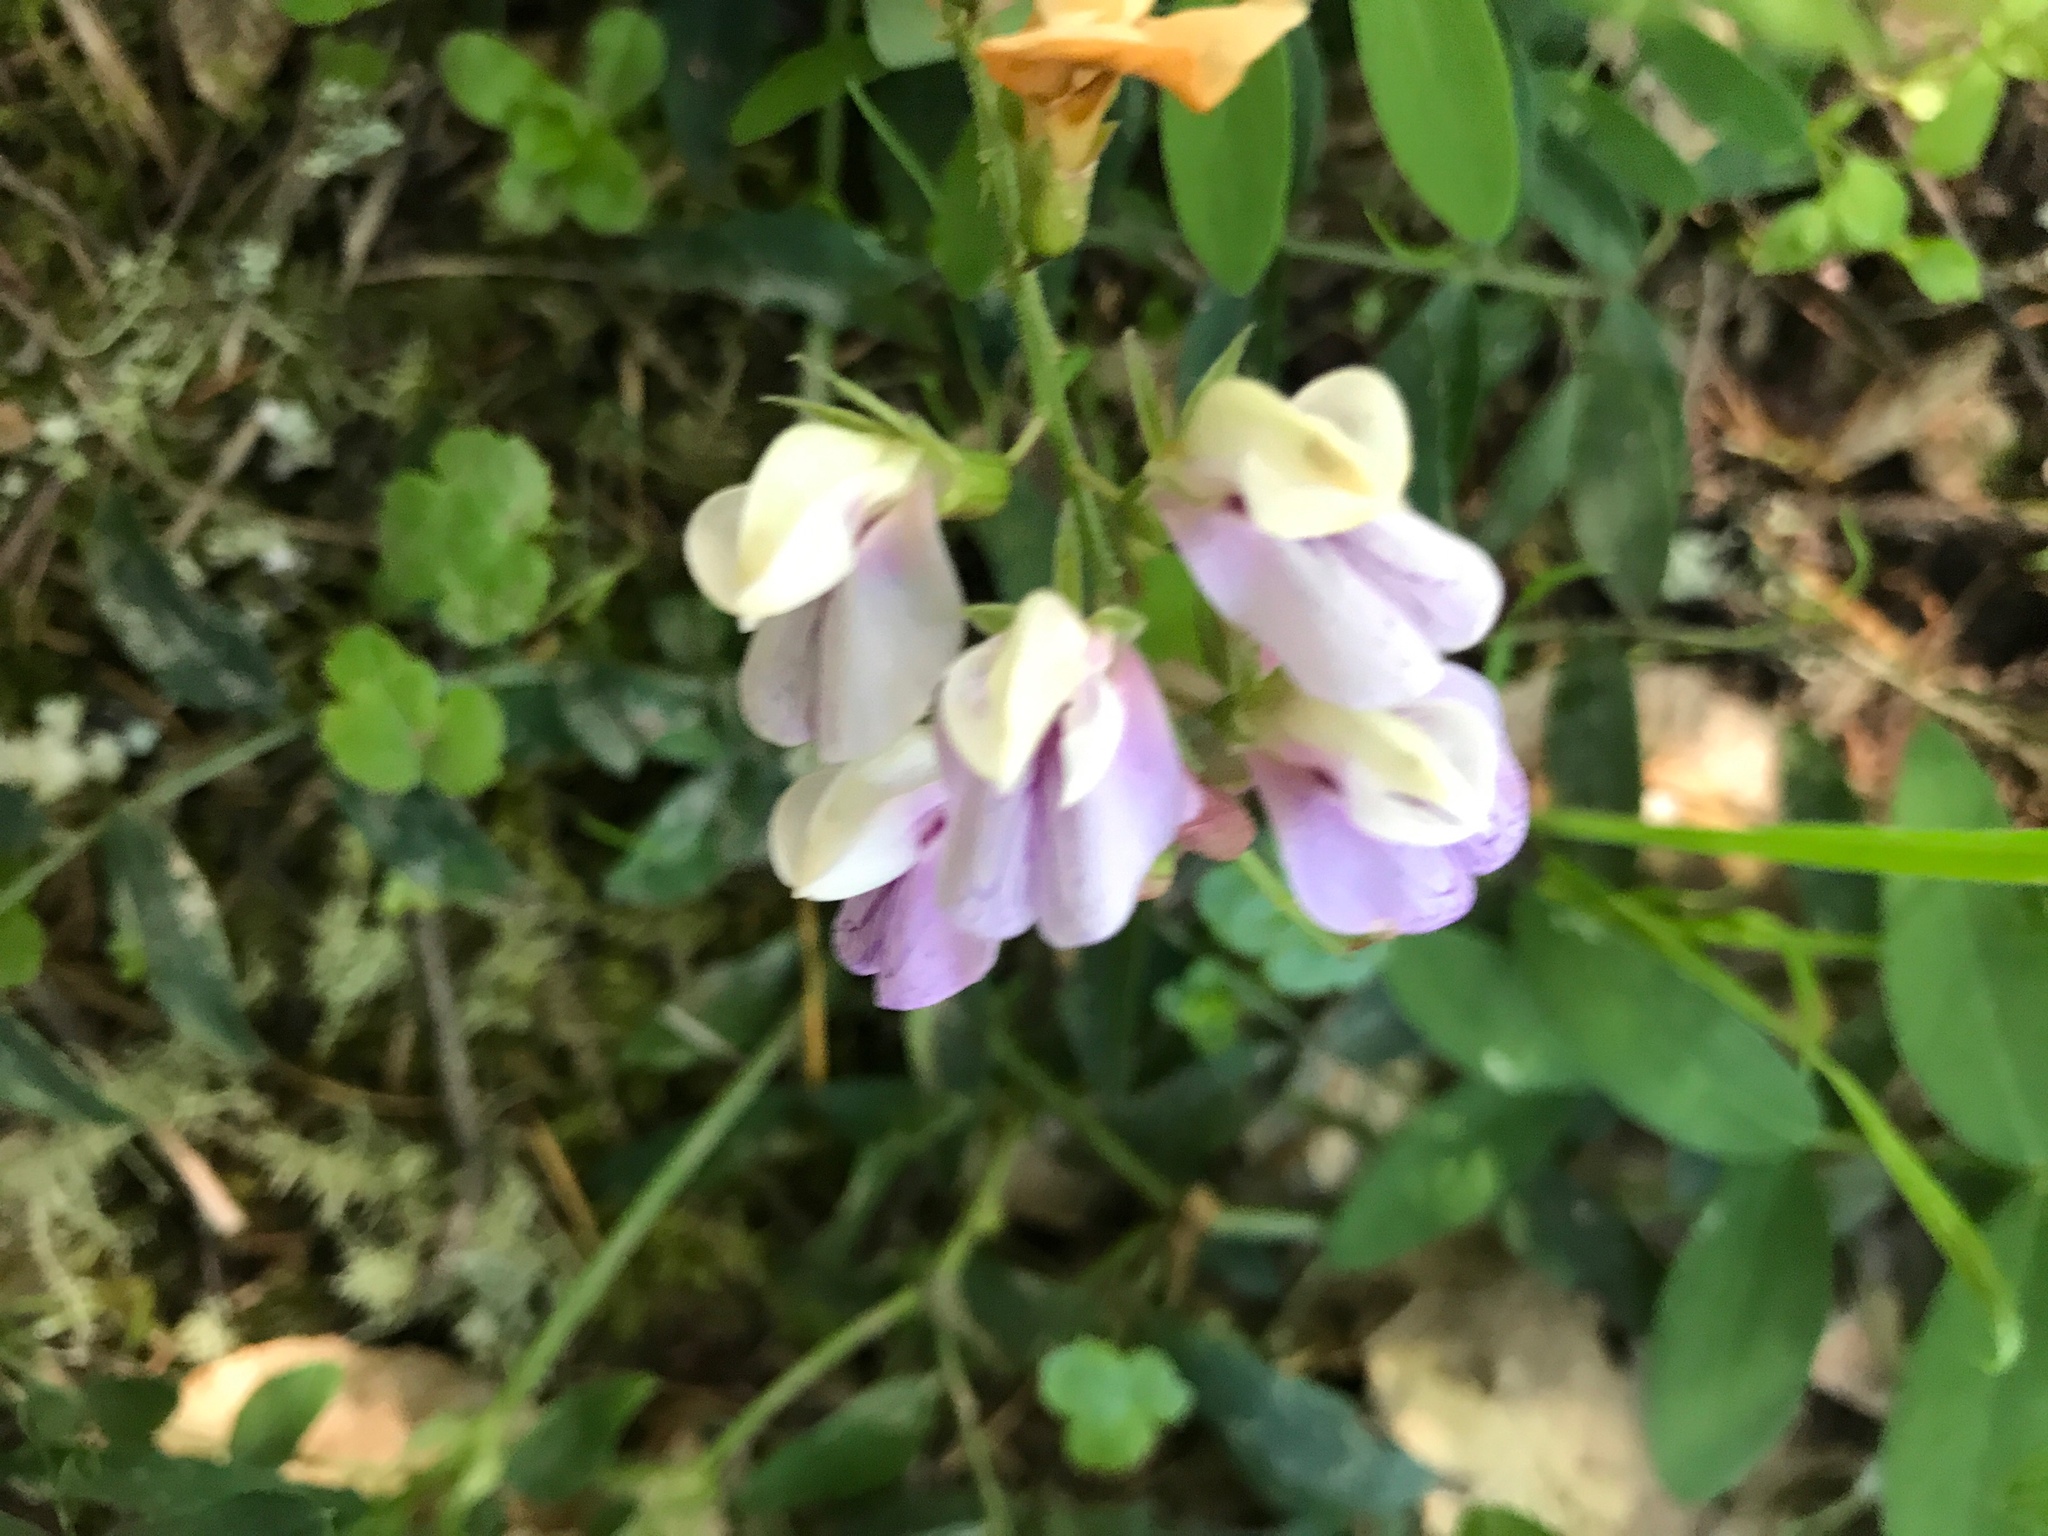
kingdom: Plantae
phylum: Tracheophyta
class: Magnoliopsida
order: Fabales
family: Fabaceae
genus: Lathyrus
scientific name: Lathyrus vestitus
